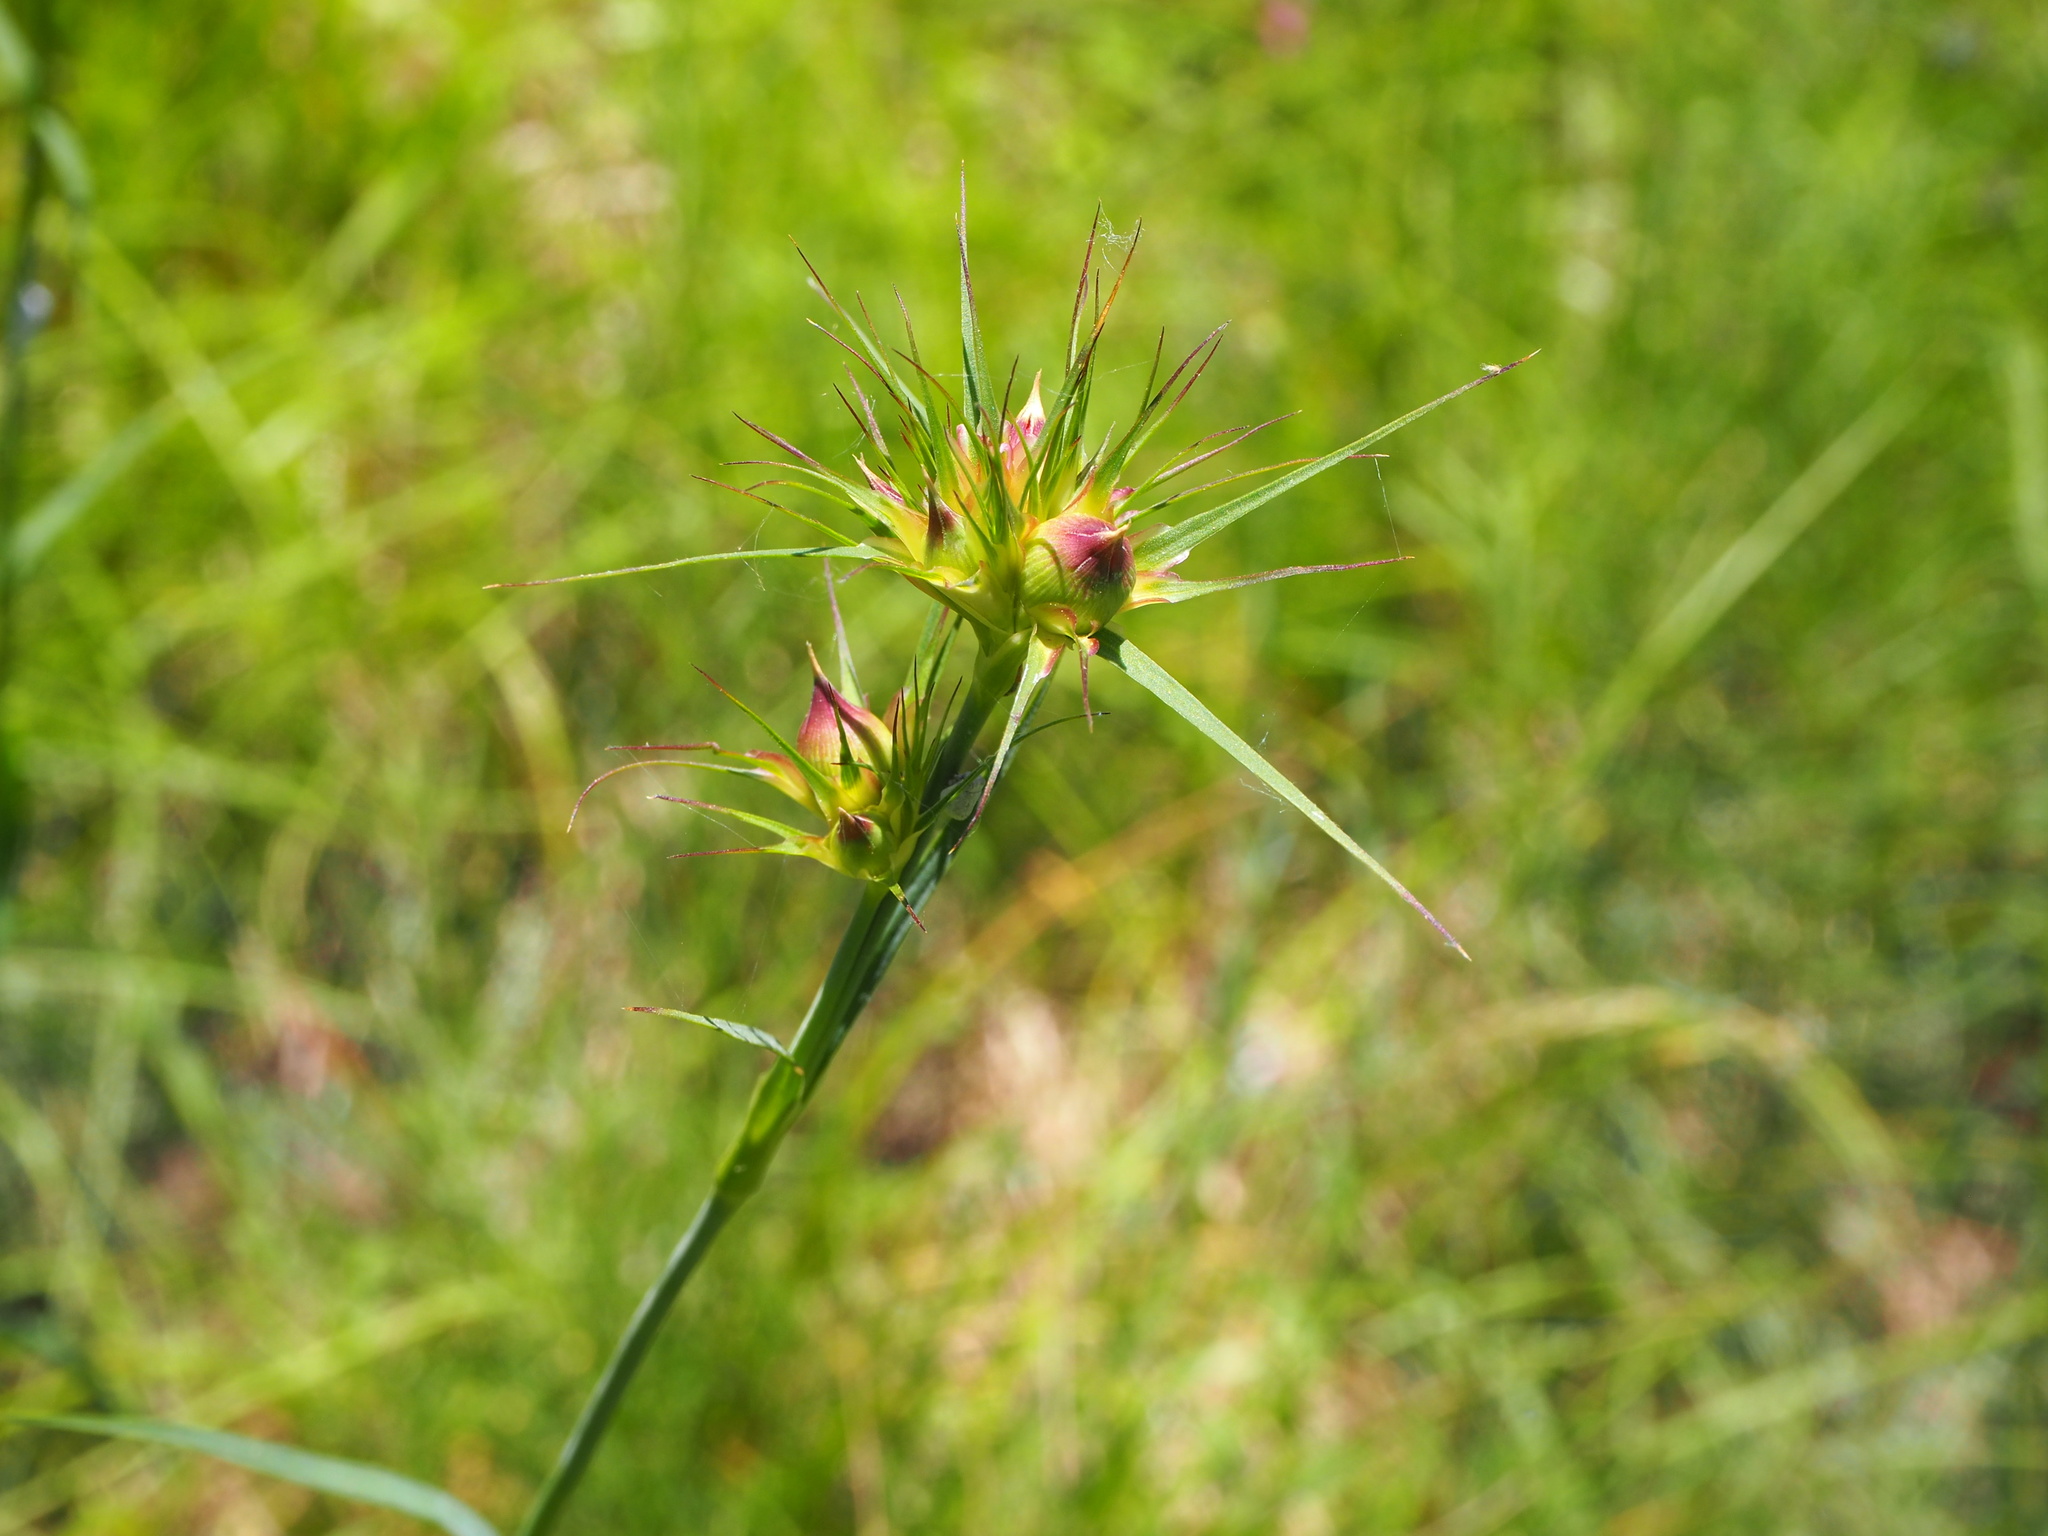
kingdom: Plantae
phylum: Tracheophyta
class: Magnoliopsida
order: Caryophyllales
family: Caryophyllaceae
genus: Dianthus
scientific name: Dianthus balbisii
